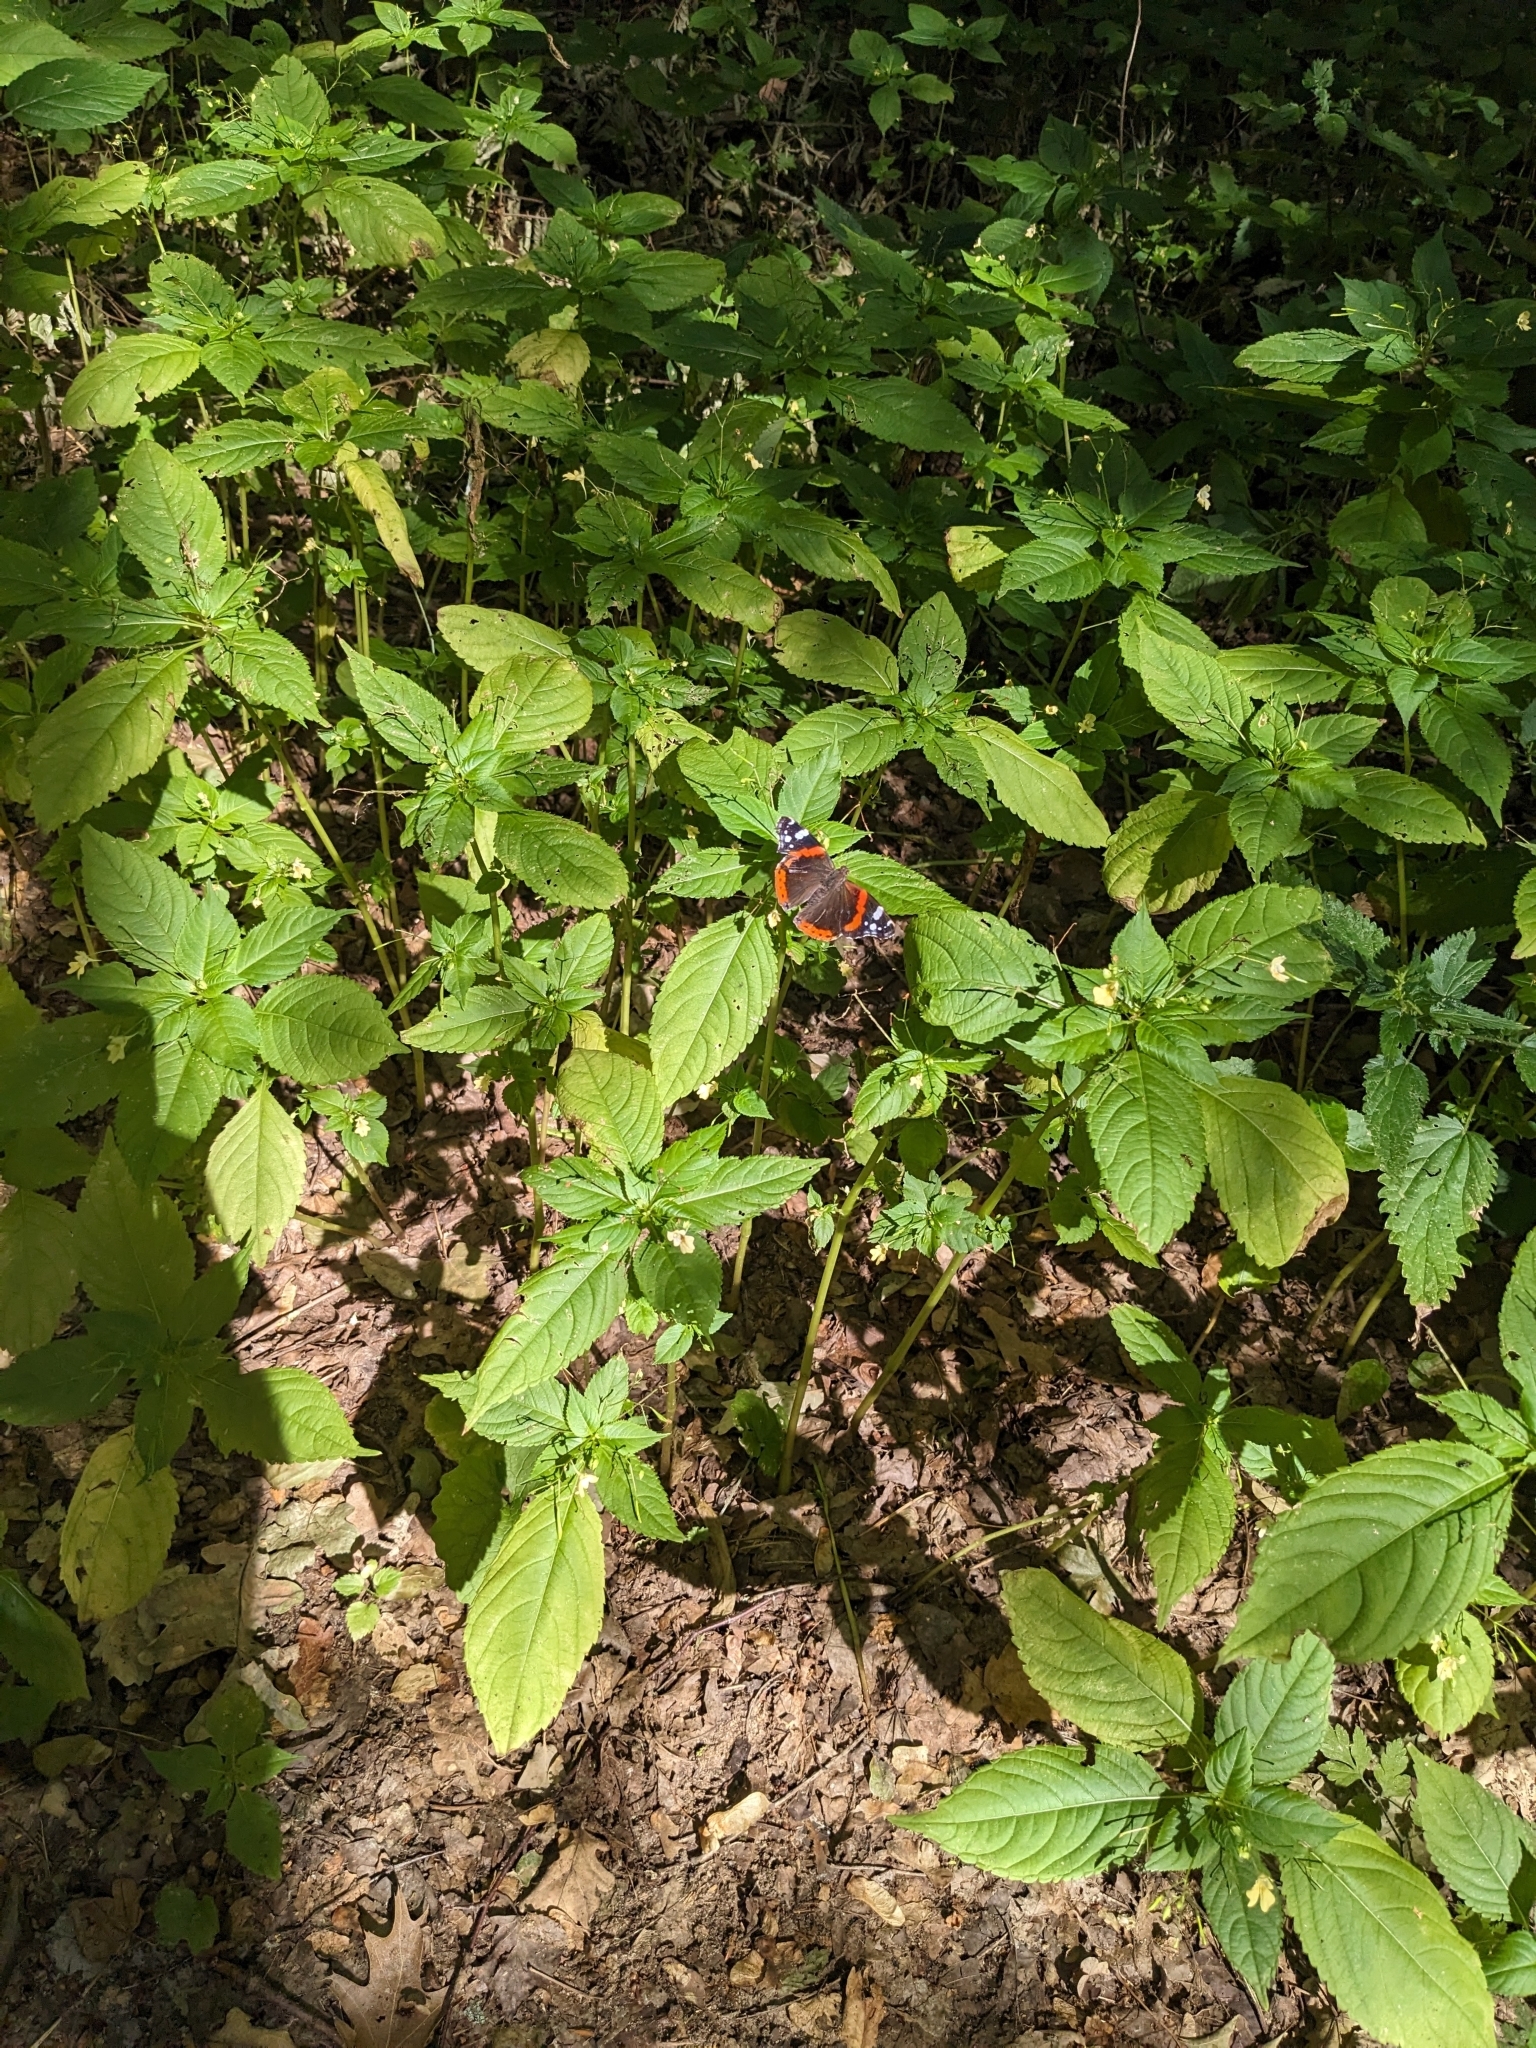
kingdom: Animalia
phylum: Arthropoda
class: Insecta
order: Lepidoptera
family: Nymphalidae
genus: Vanessa
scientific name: Vanessa atalanta
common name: Red admiral
